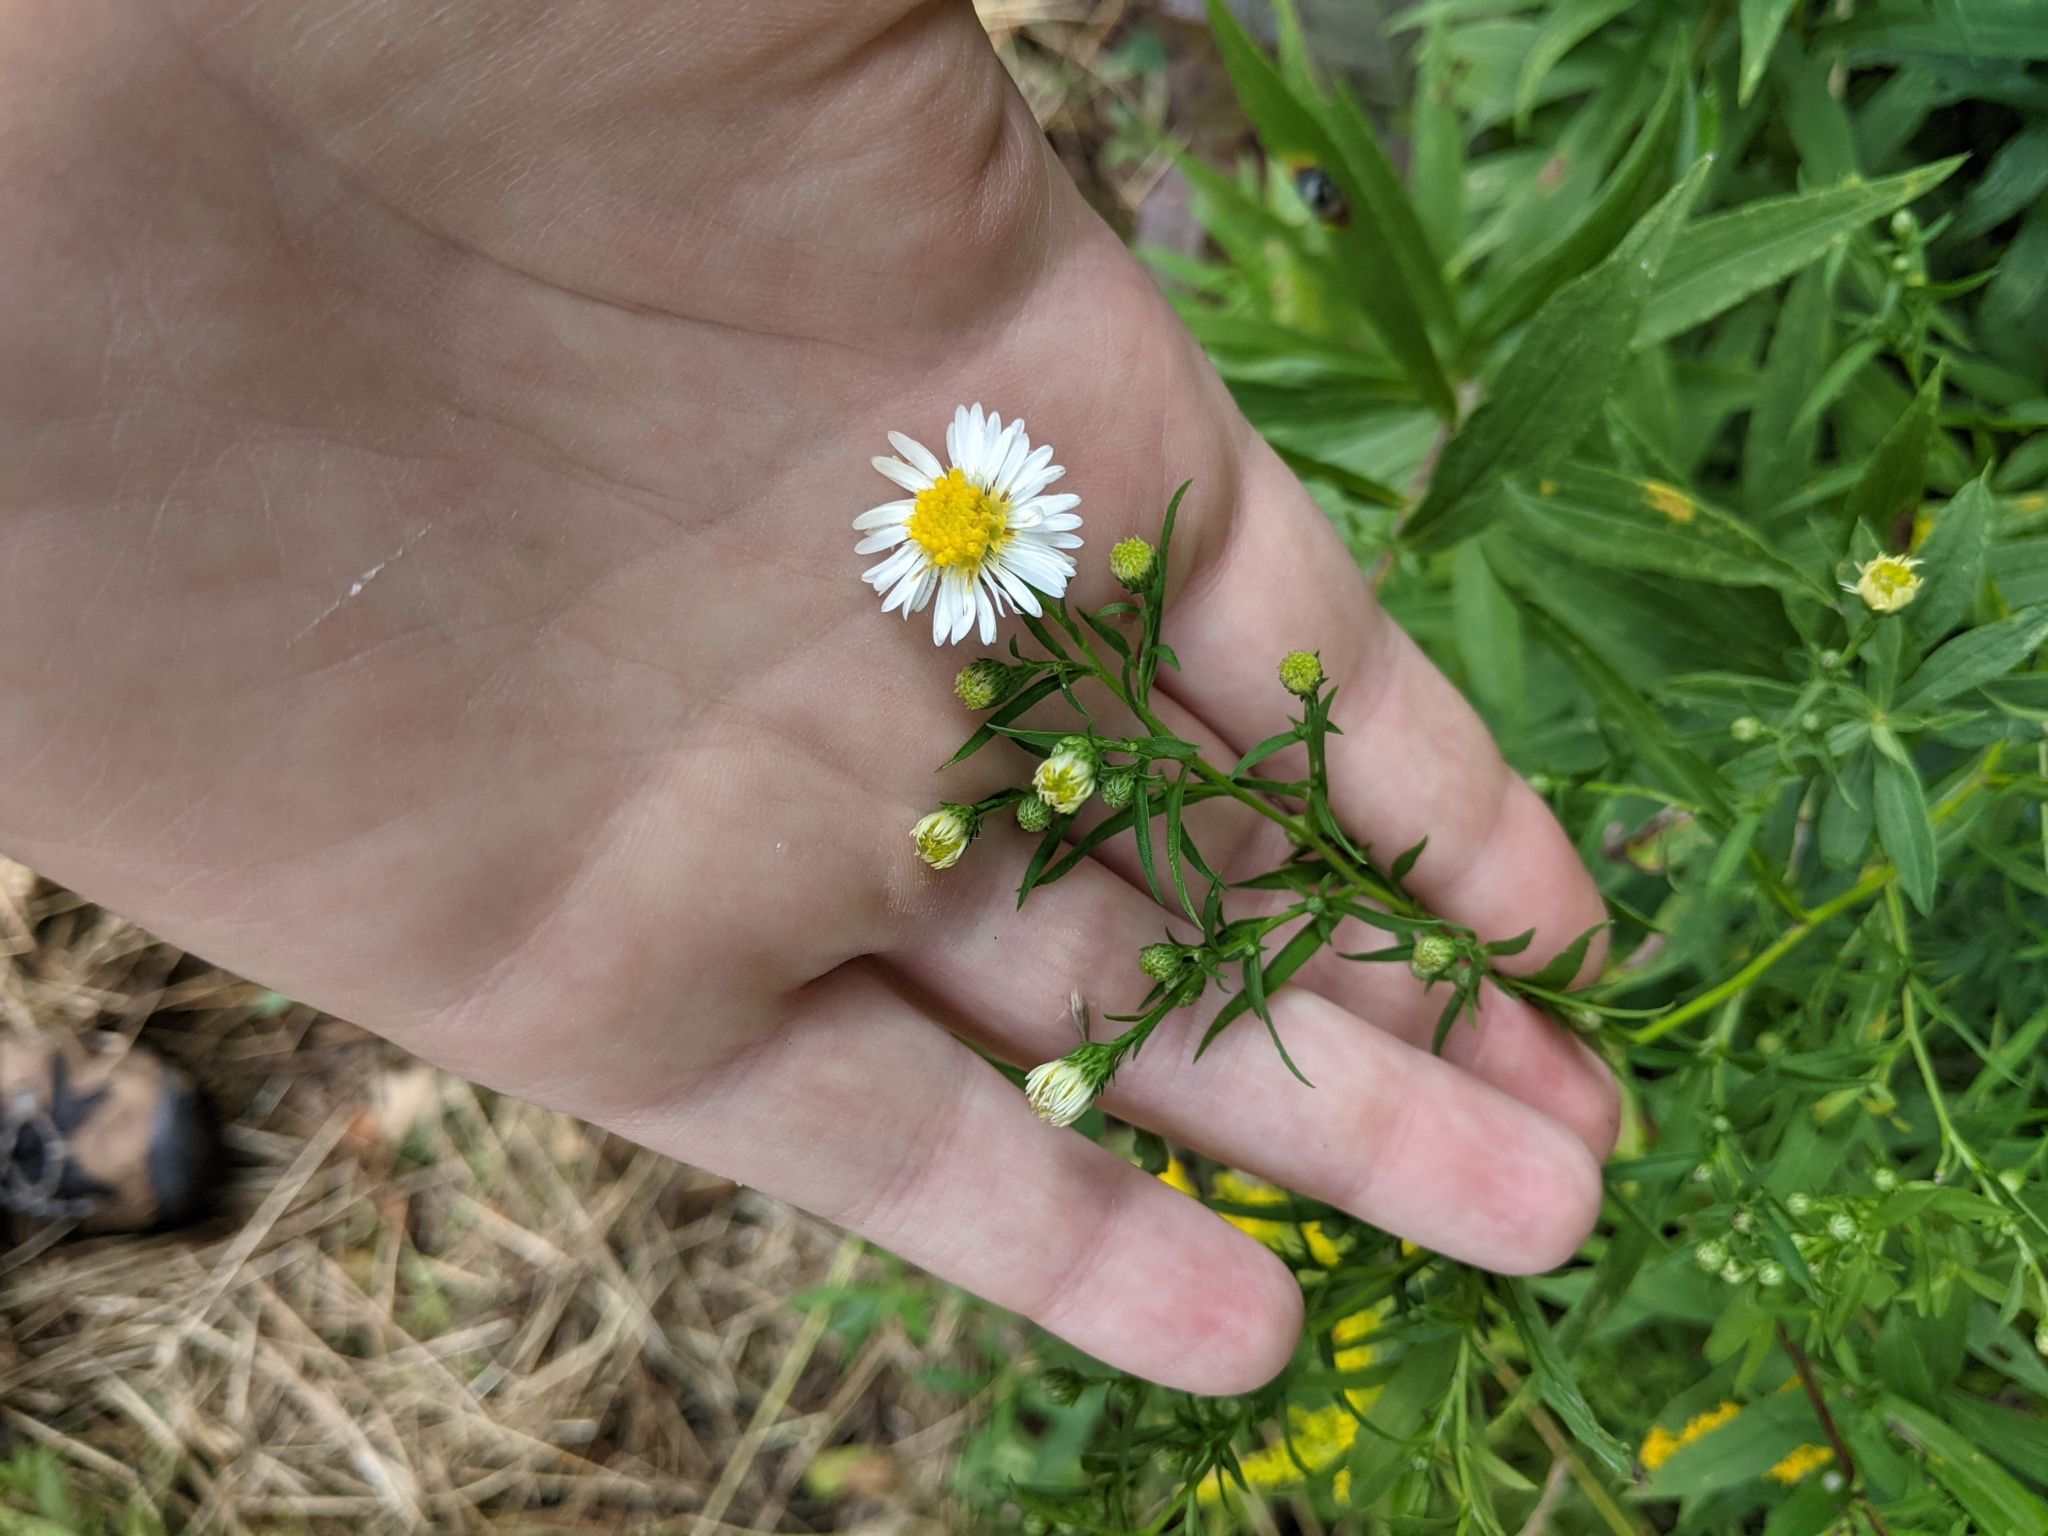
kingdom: Plantae
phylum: Tracheophyta
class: Magnoliopsida
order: Asterales
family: Asteraceae
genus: Symphyotrichum
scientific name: Symphyotrichum lanceolatum
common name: Panicled aster
